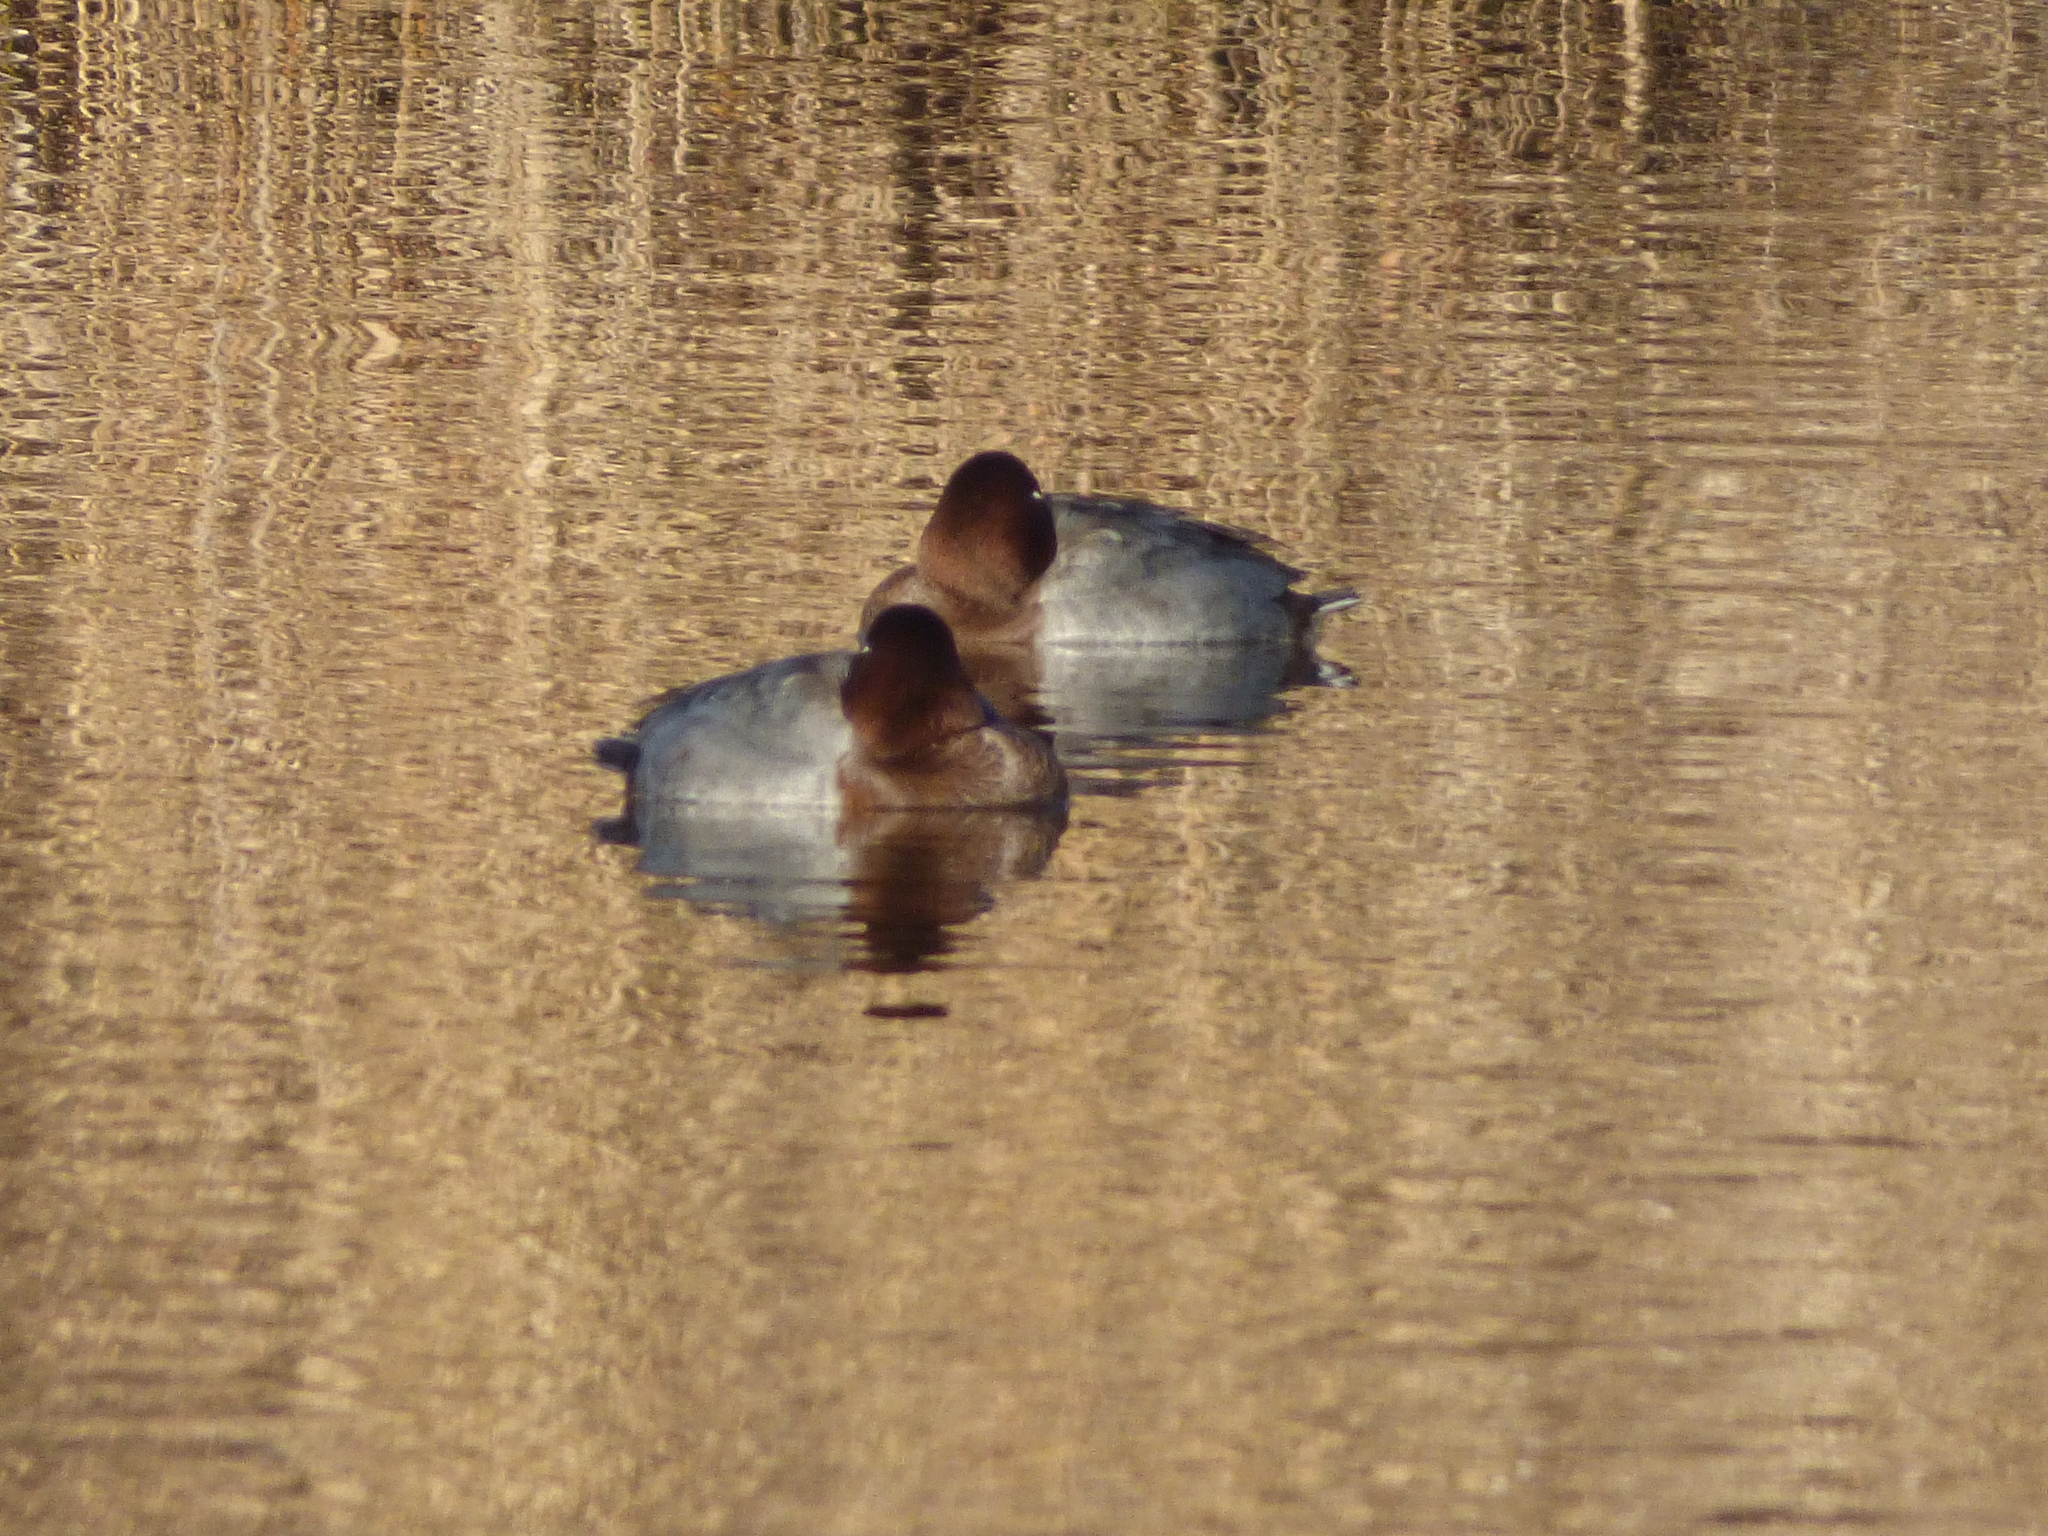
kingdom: Animalia
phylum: Chordata
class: Aves
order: Anseriformes
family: Anatidae
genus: Aythya
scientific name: Aythya ferina
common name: Common pochard
